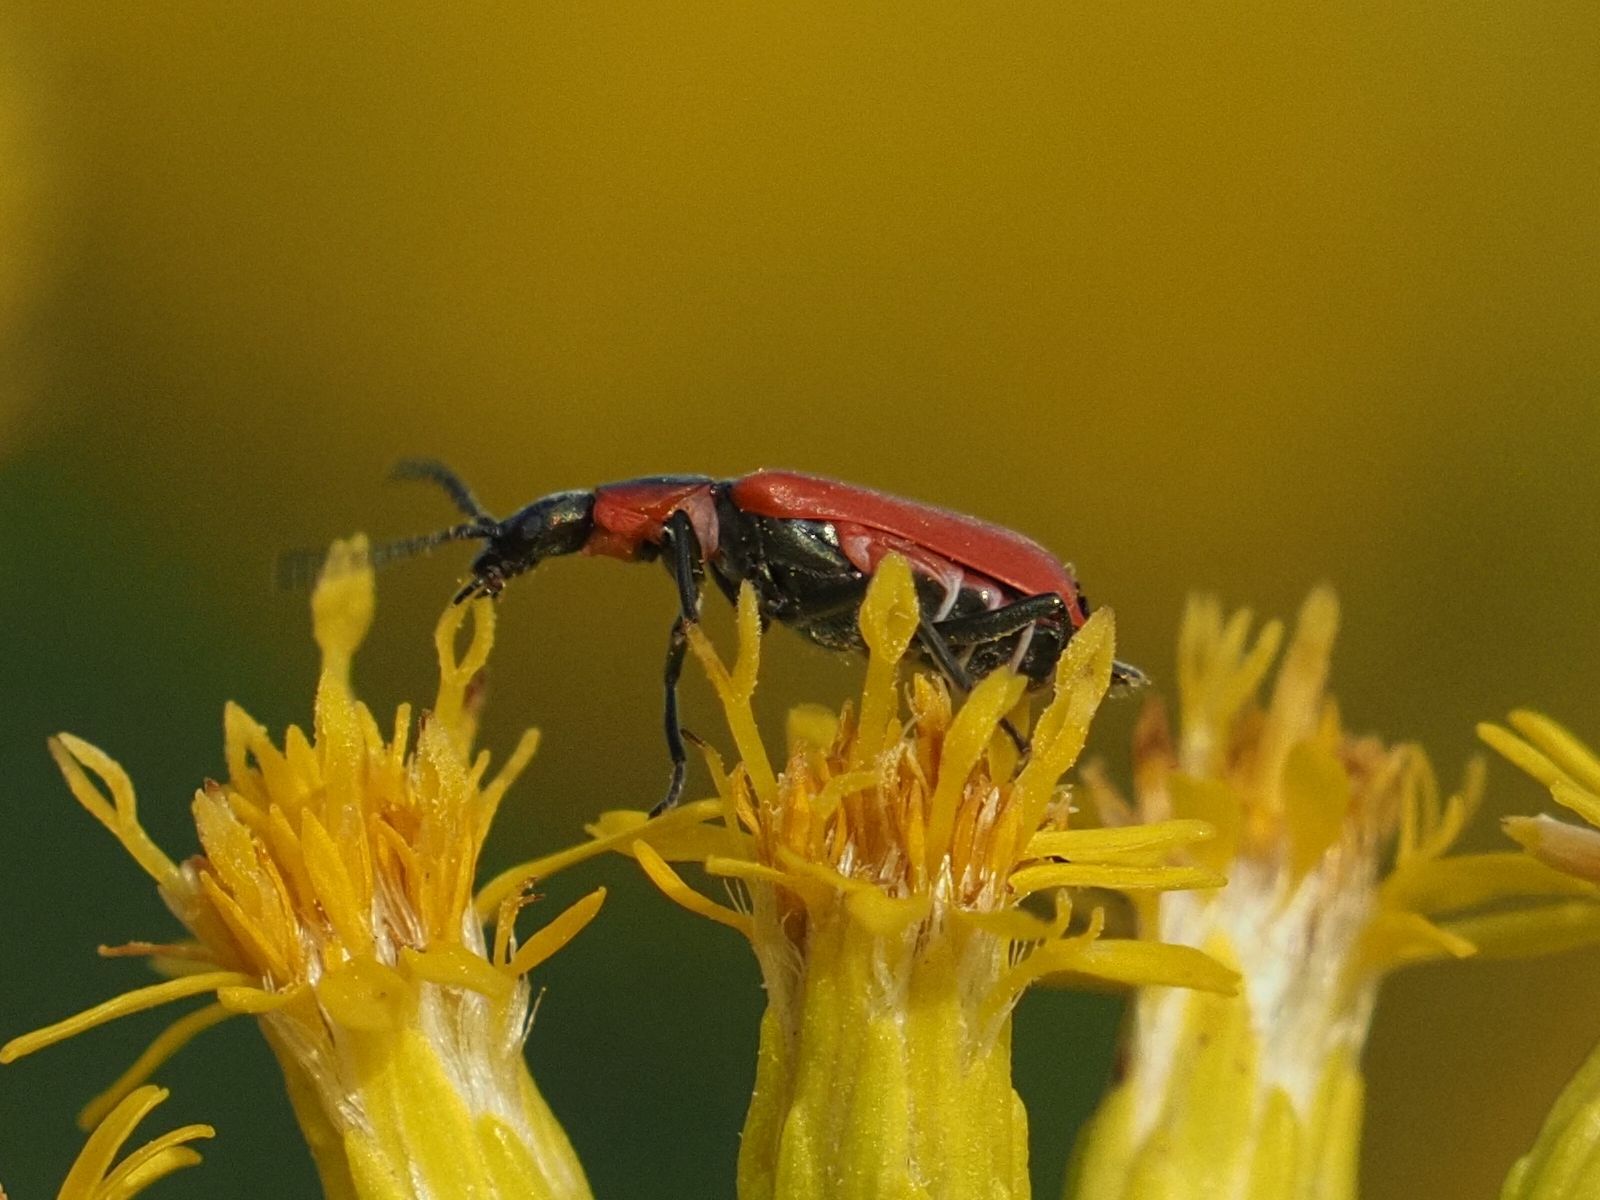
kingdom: Animalia
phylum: Arthropoda
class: Insecta
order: Coleoptera
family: Melyridae
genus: Anthocomus
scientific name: Anthocomus rufus
